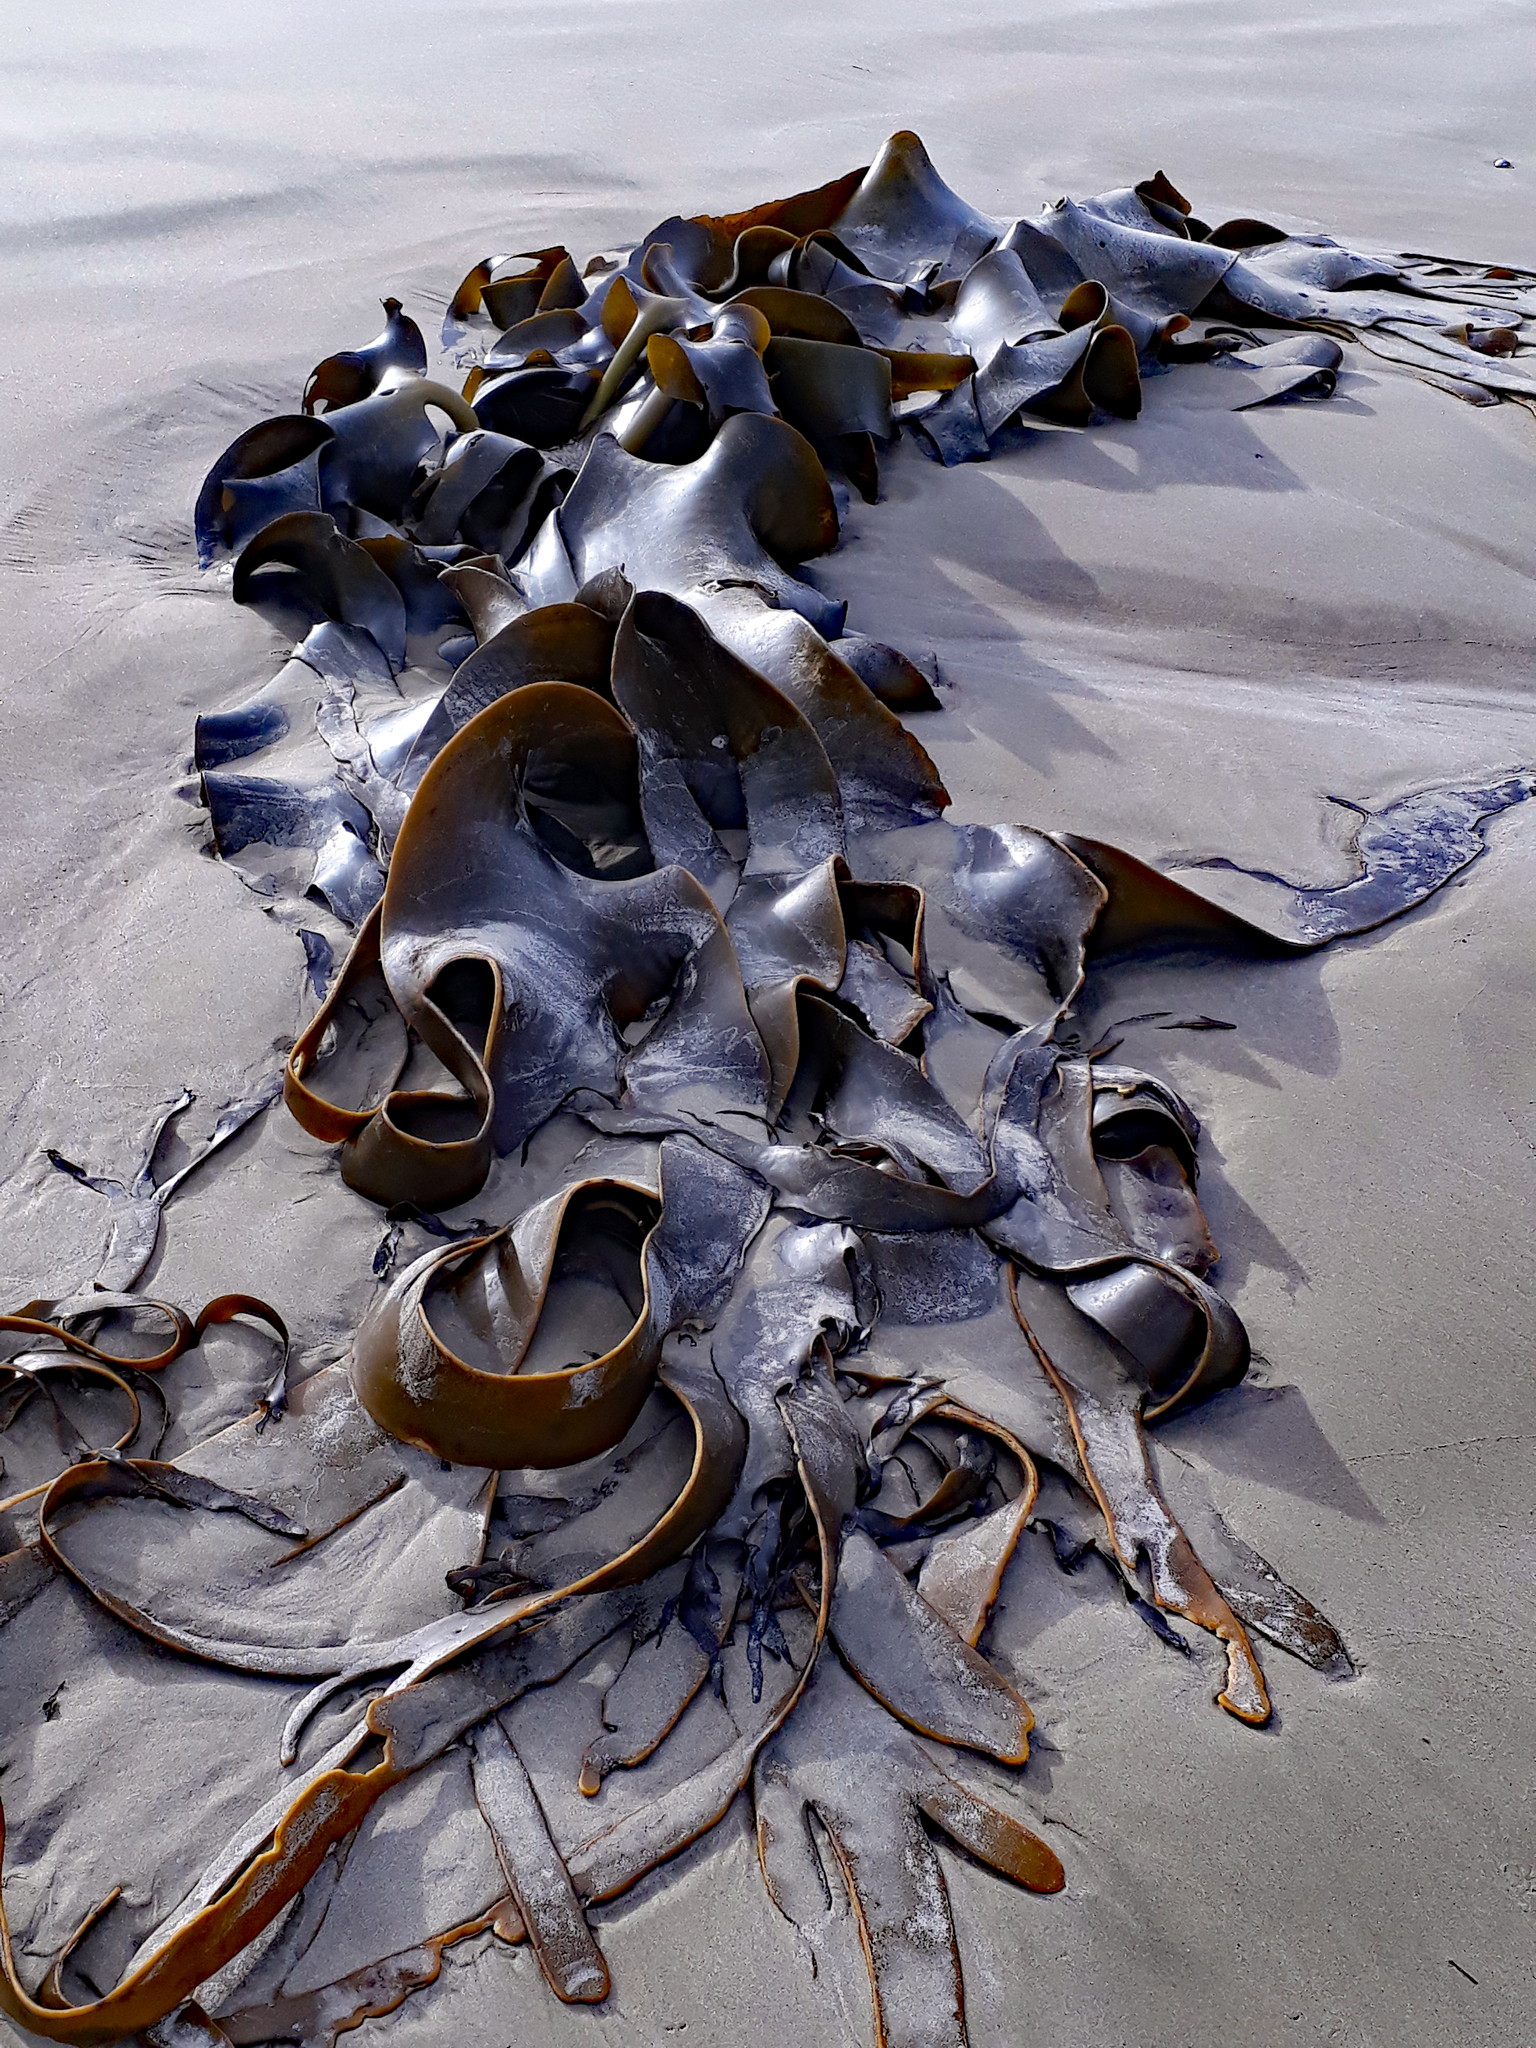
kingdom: Chromista
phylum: Ochrophyta
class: Phaeophyceae
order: Fucales
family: Durvillaeaceae
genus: Durvillaea
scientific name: Durvillaea antarctica
